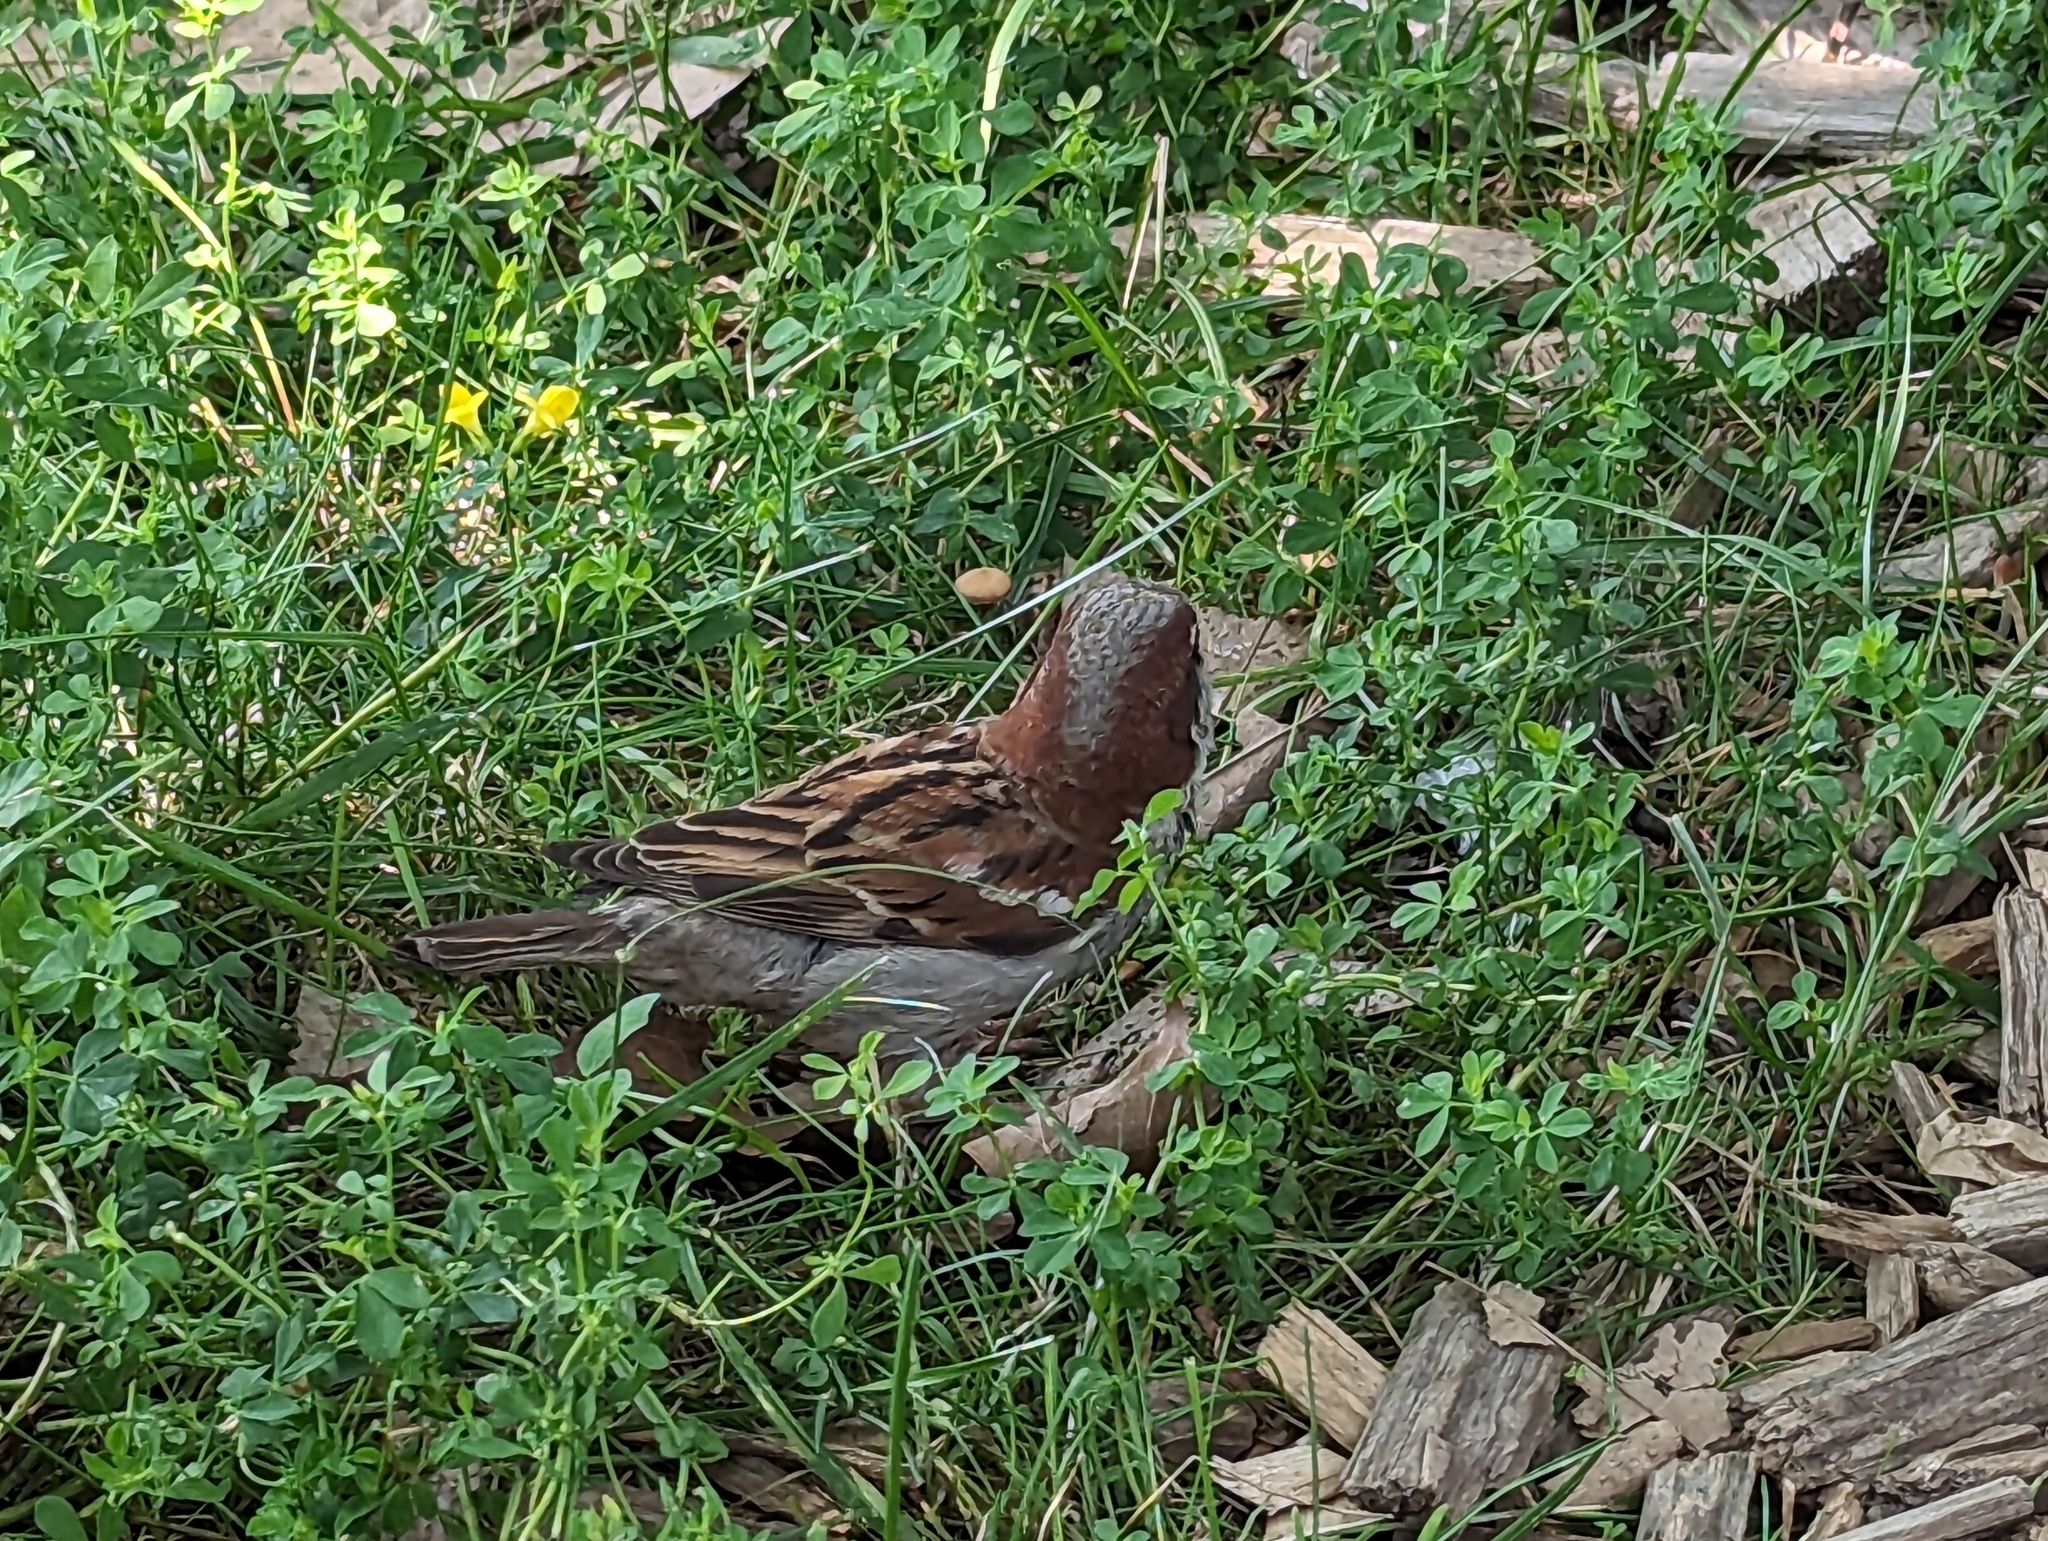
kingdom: Animalia
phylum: Chordata
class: Aves
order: Passeriformes
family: Passeridae
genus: Passer
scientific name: Passer domesticus
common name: House sparrow
